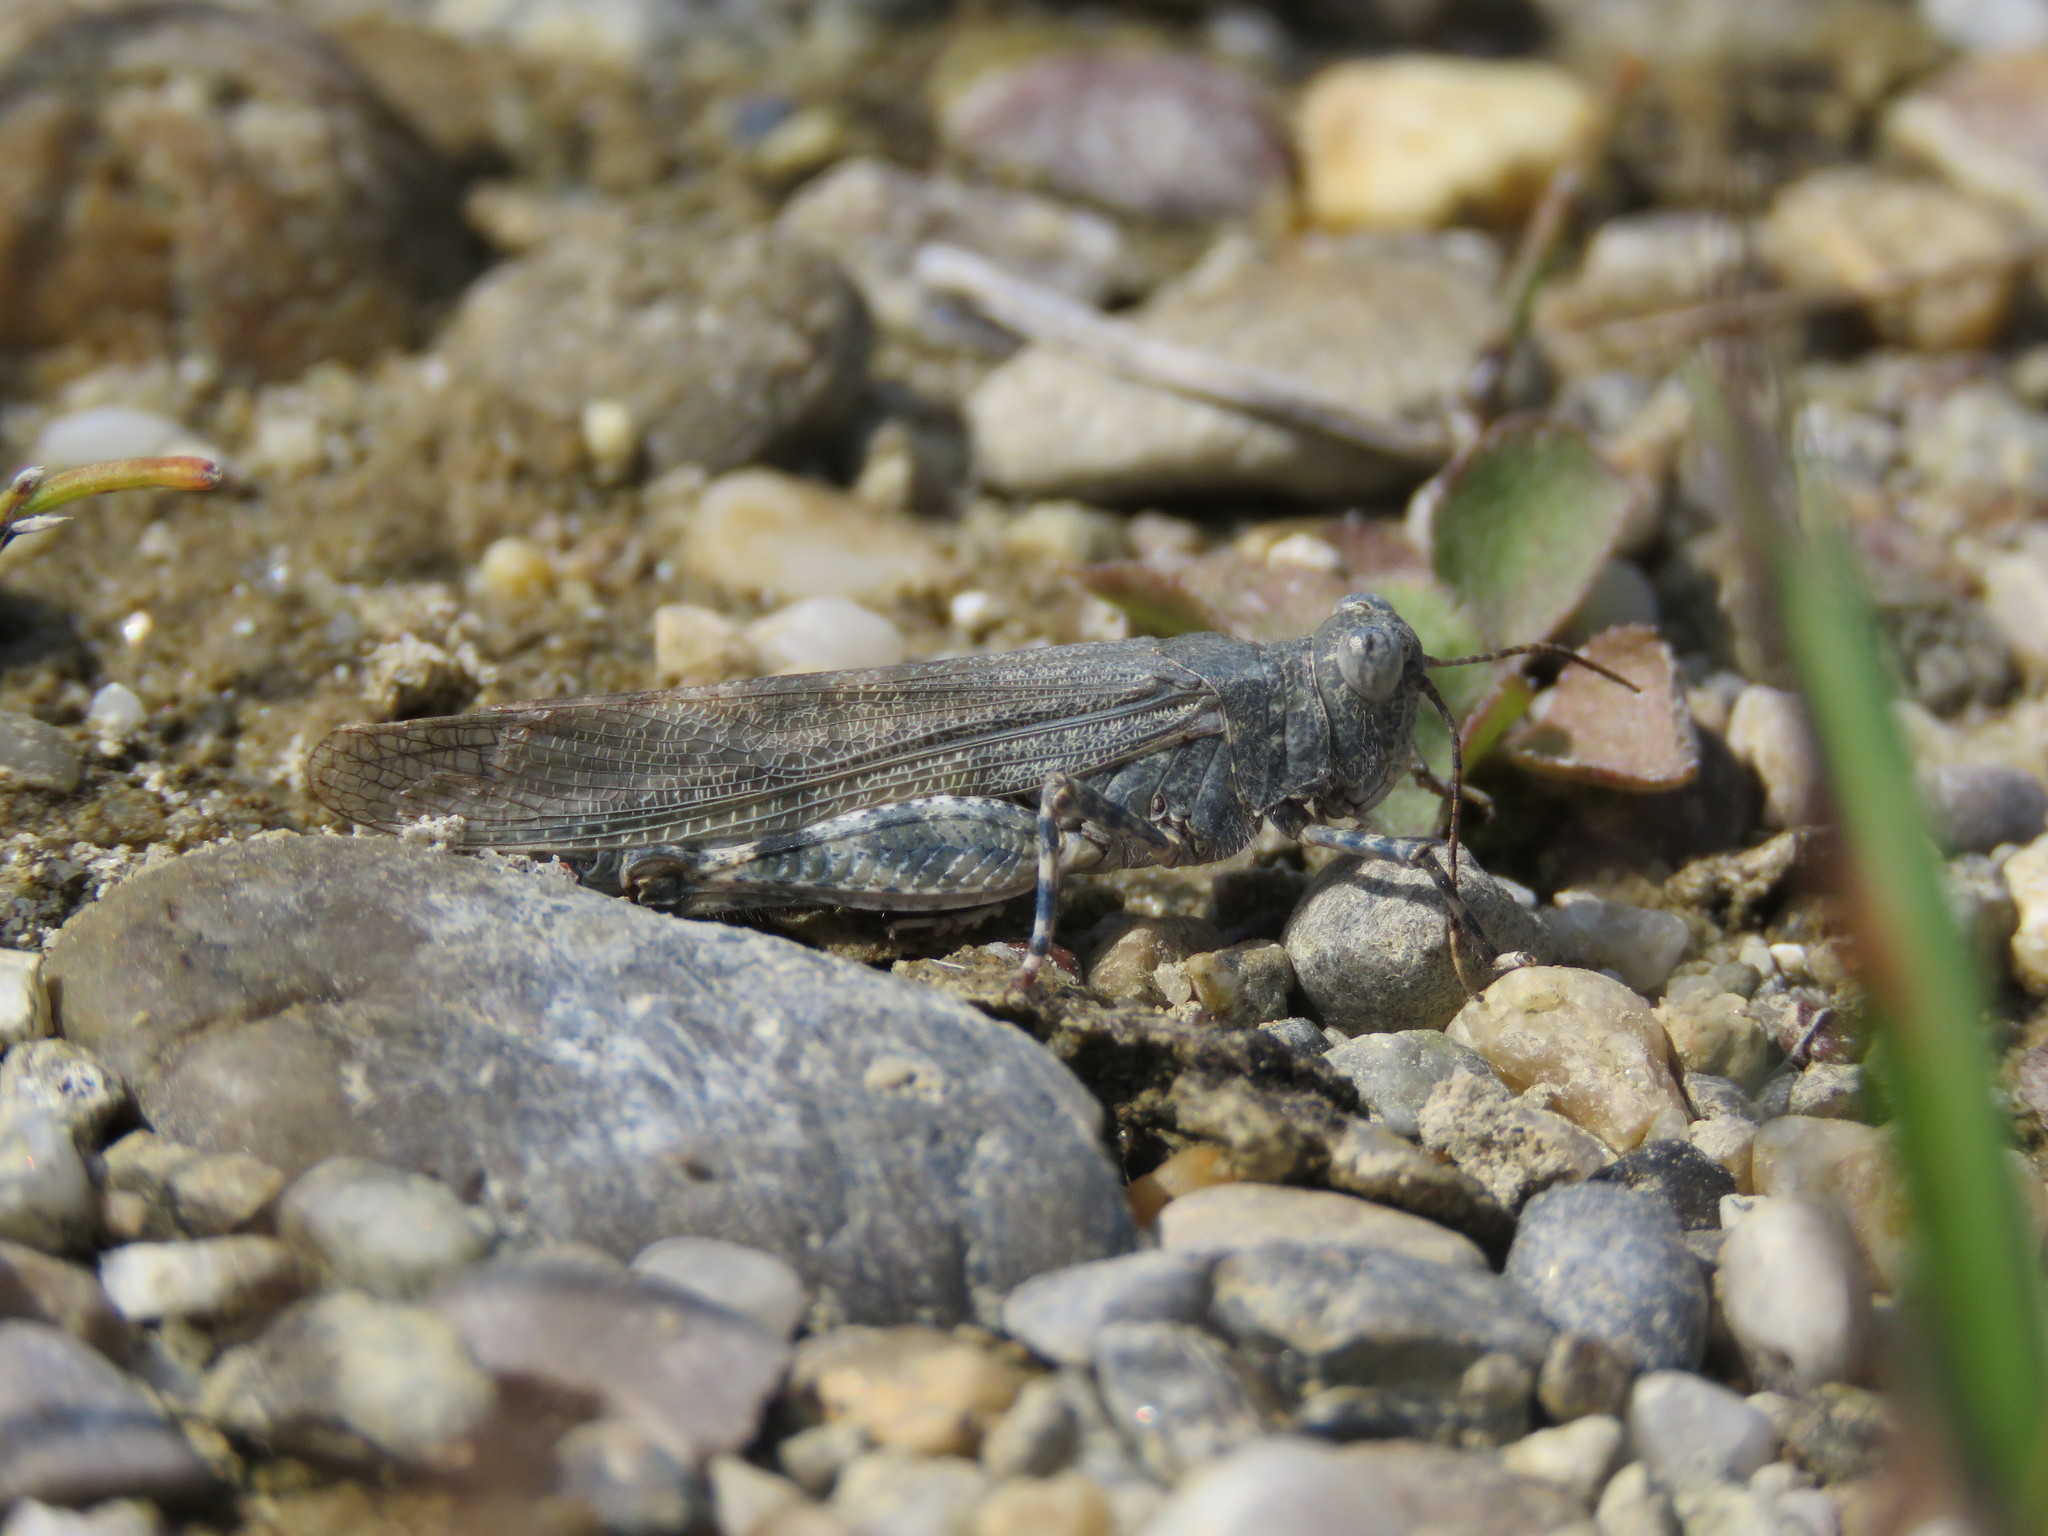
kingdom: Animalia
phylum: Arthropoda
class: Insecta
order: Orthoptera
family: Acrididae
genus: Sphingonotus
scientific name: Sphingonotus caerulans
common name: Blue-winged locust
